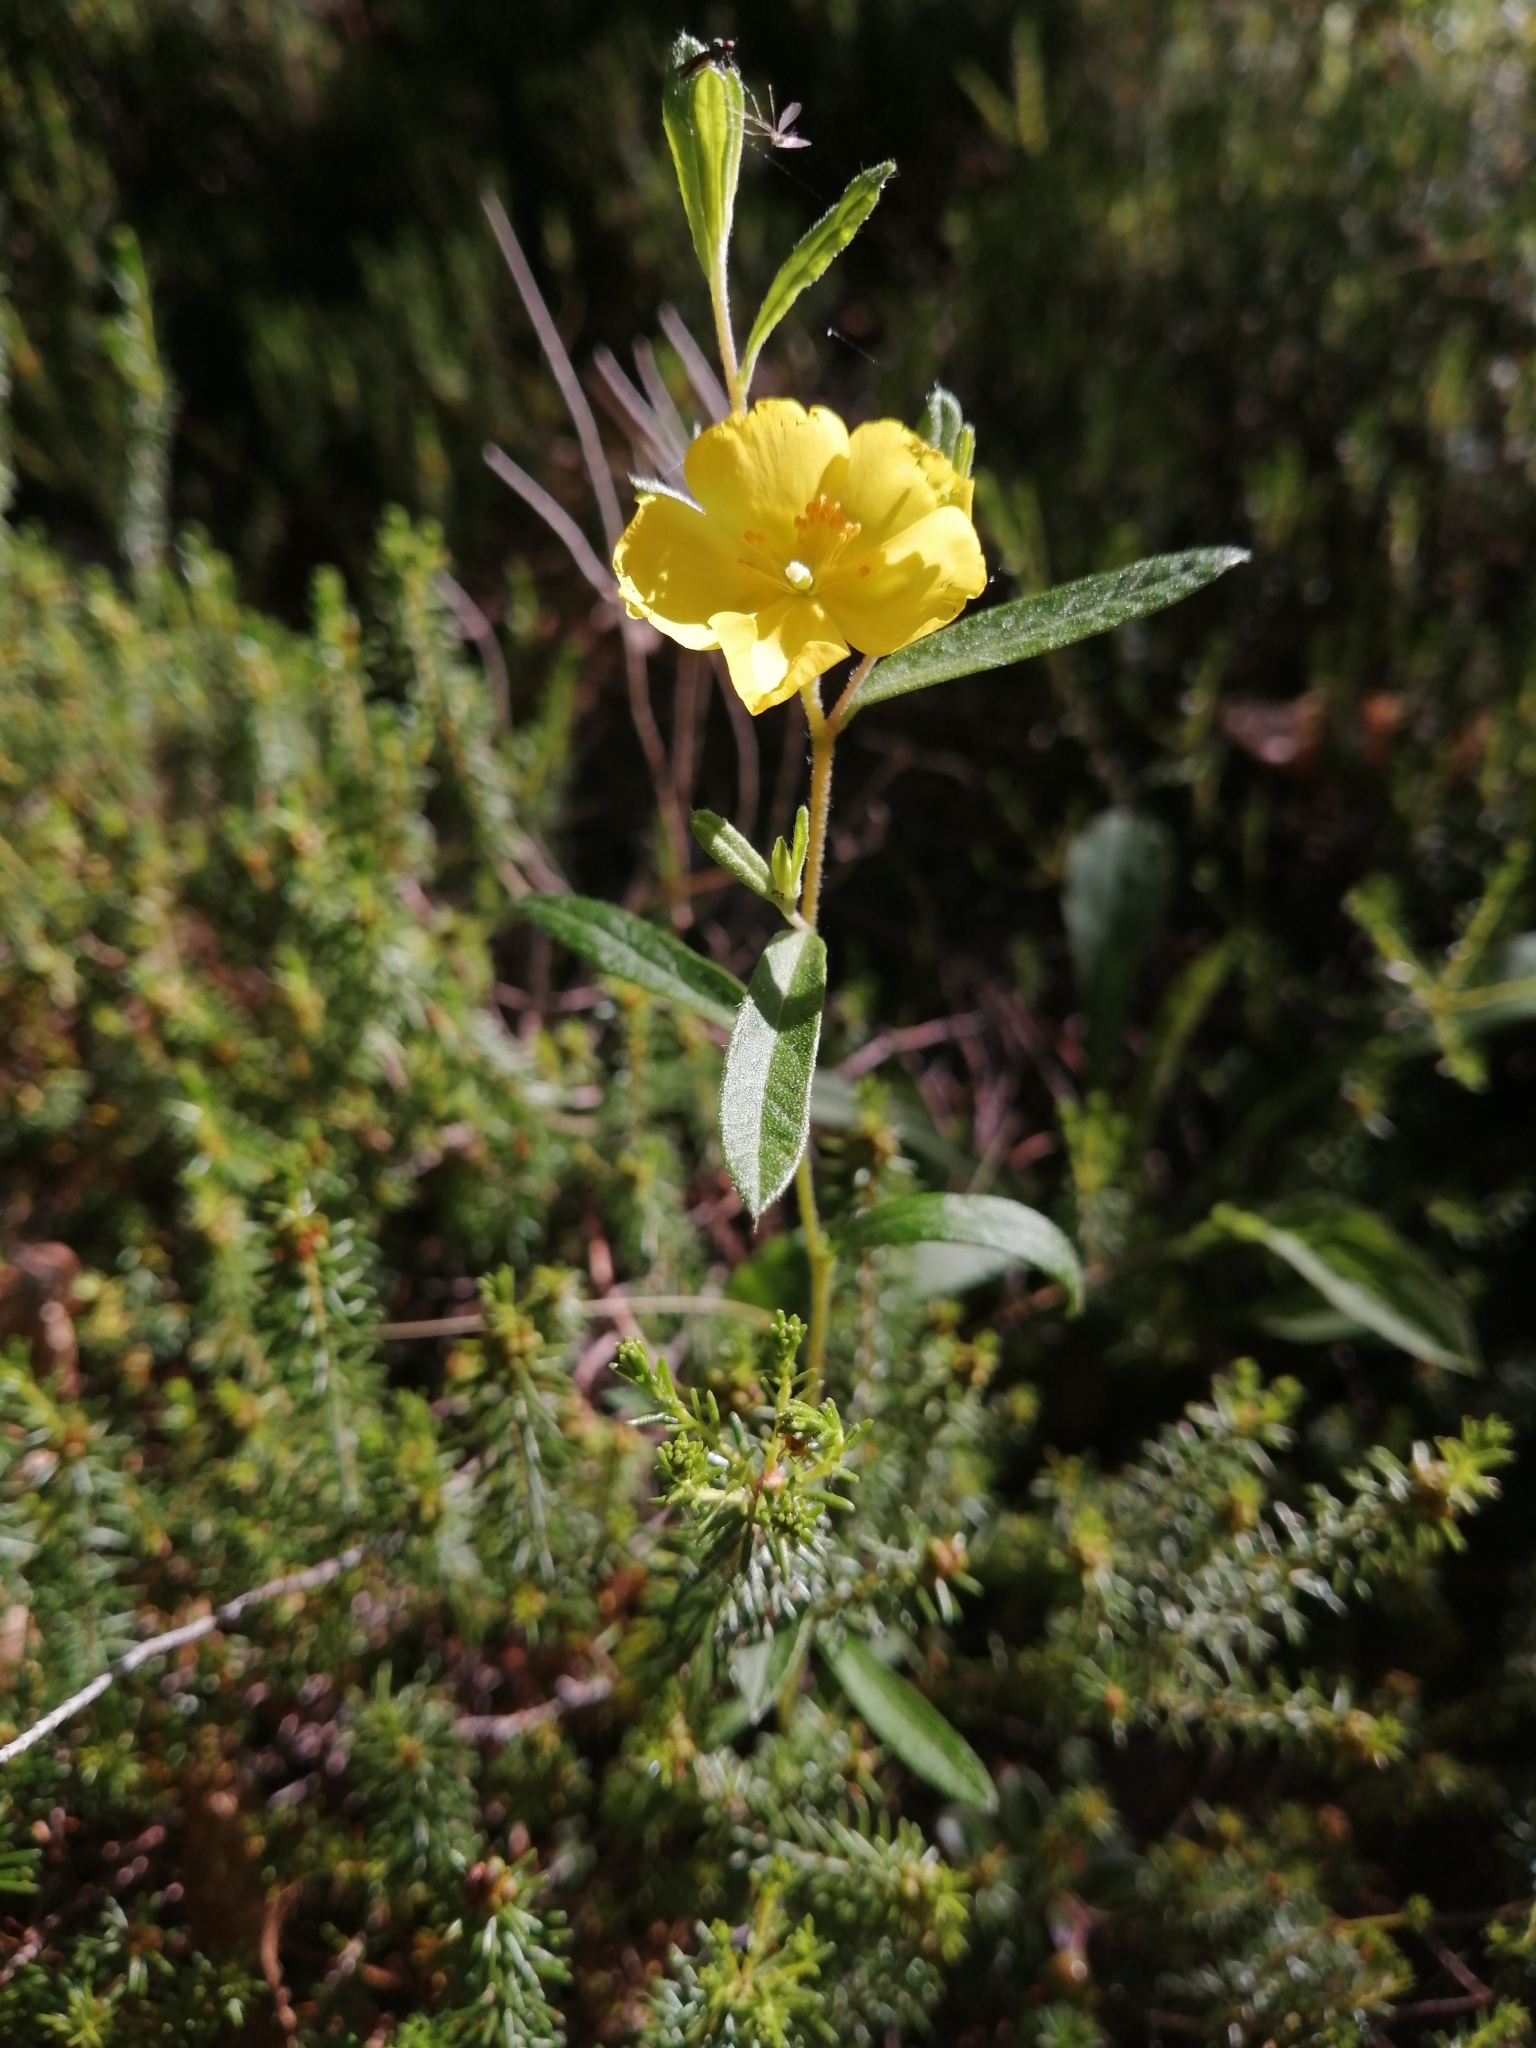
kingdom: Plantae
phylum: Tracheophyta
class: Magnoliopsida
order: Malvales
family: Cistaceae
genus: Crocanthemum
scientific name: Crocanthemum canadense
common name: Canada frostweed
